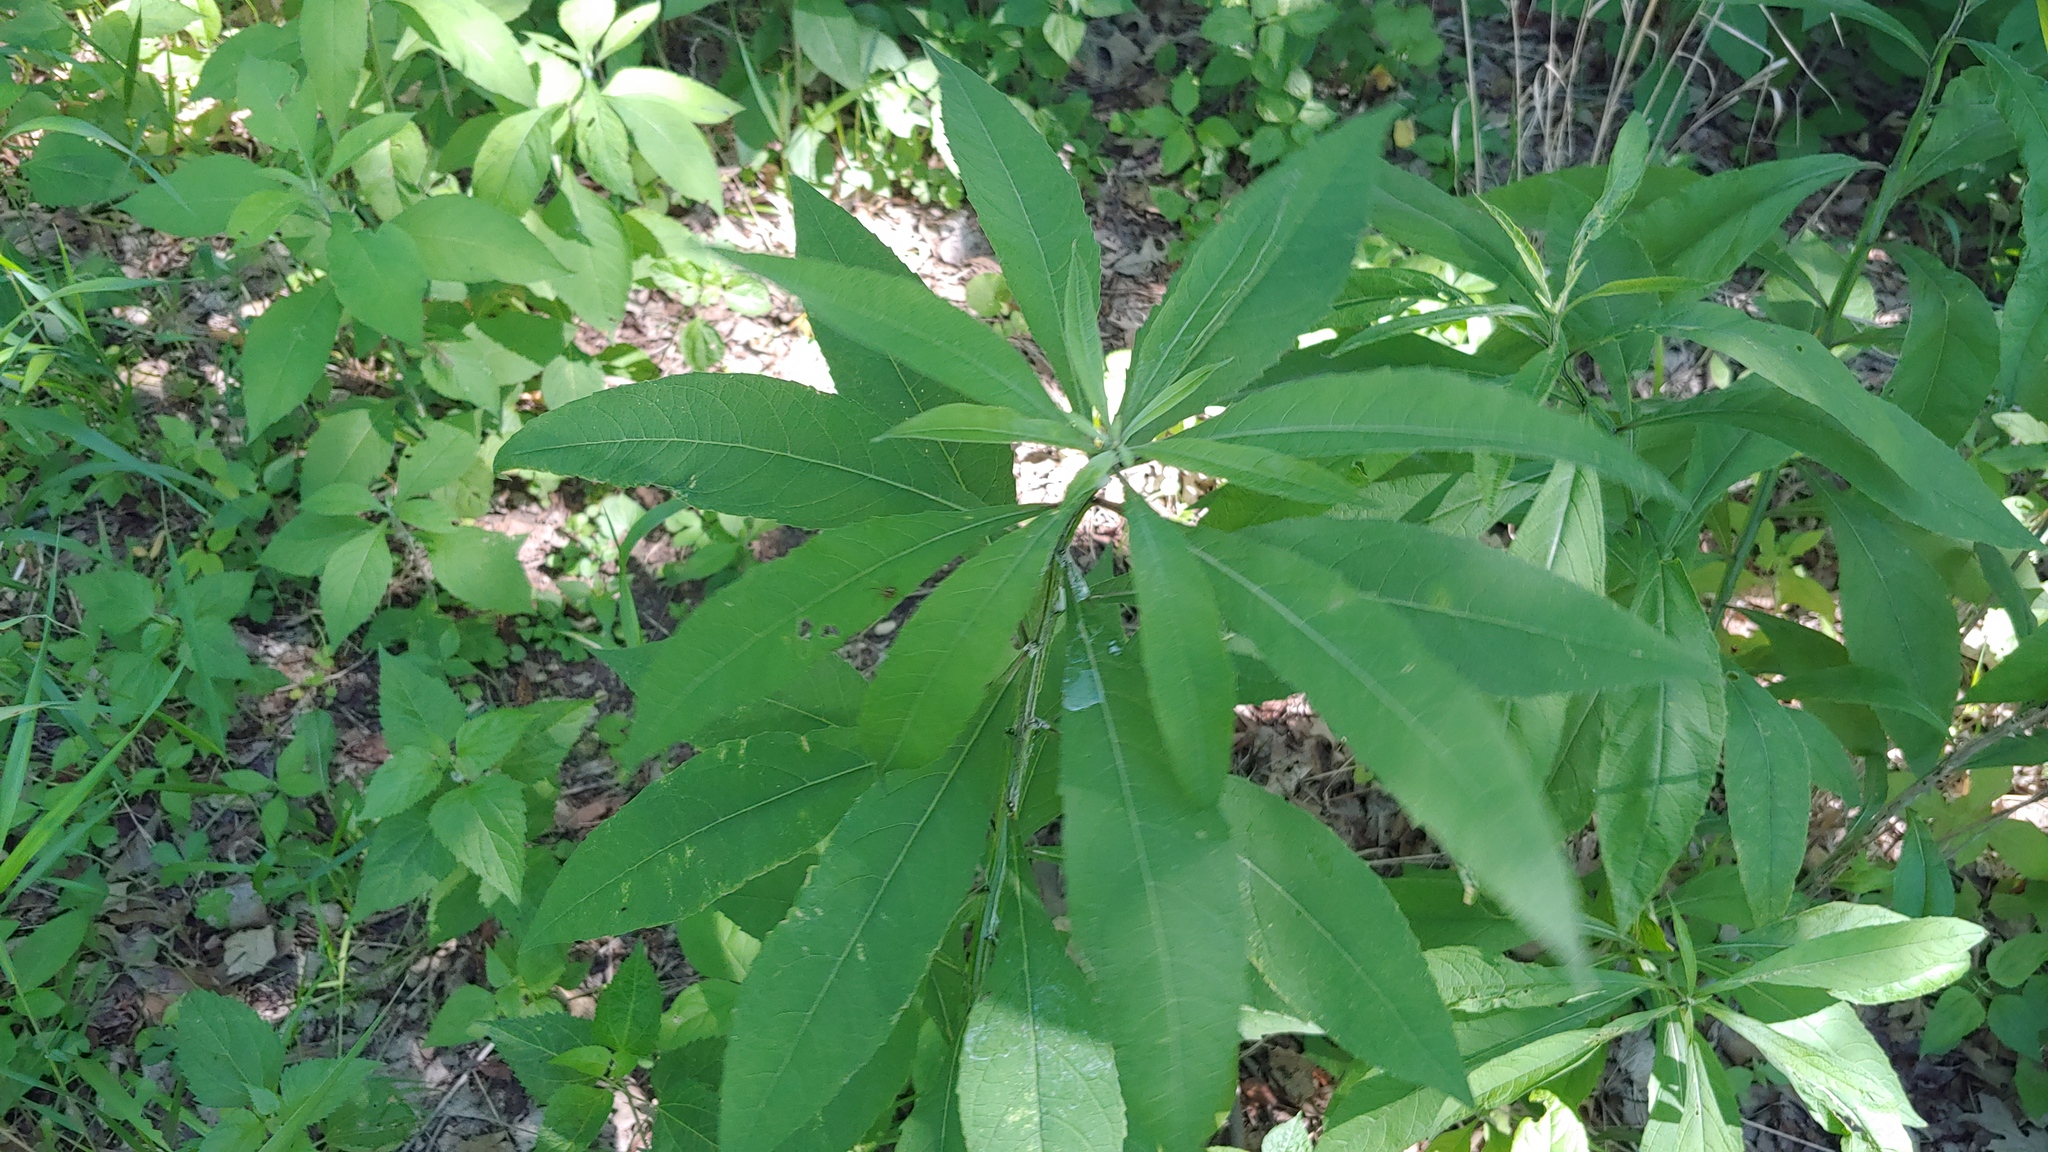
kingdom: Plantae
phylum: Tracheophyta
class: Magnoliopsida
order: Asterales
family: Asteraceae
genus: Verbesina
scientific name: Verbesina alternifolia
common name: Wingstem
